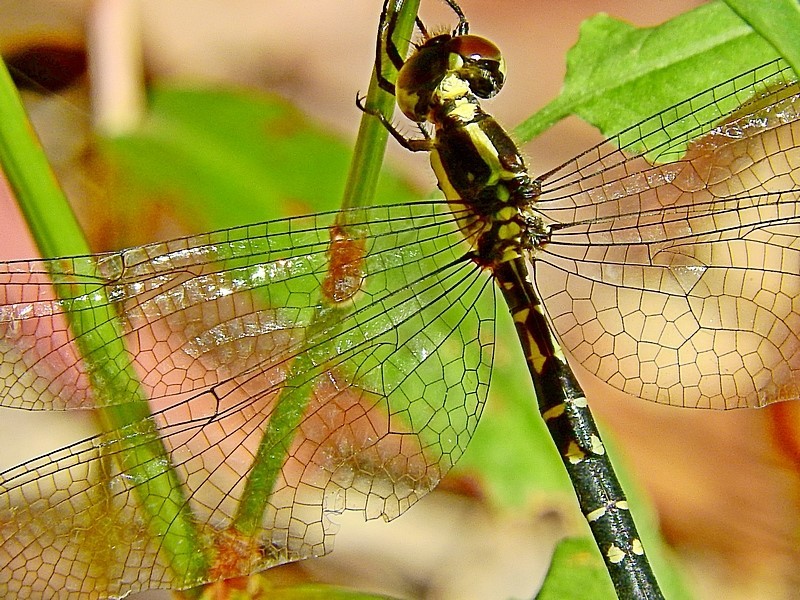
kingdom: Animalia
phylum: Arthropoda
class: Insecta
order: Odonata
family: Synthemistidae
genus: Choristhemis
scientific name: Choristhemis flavoterminata
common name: Yellow-tipped tigertail
